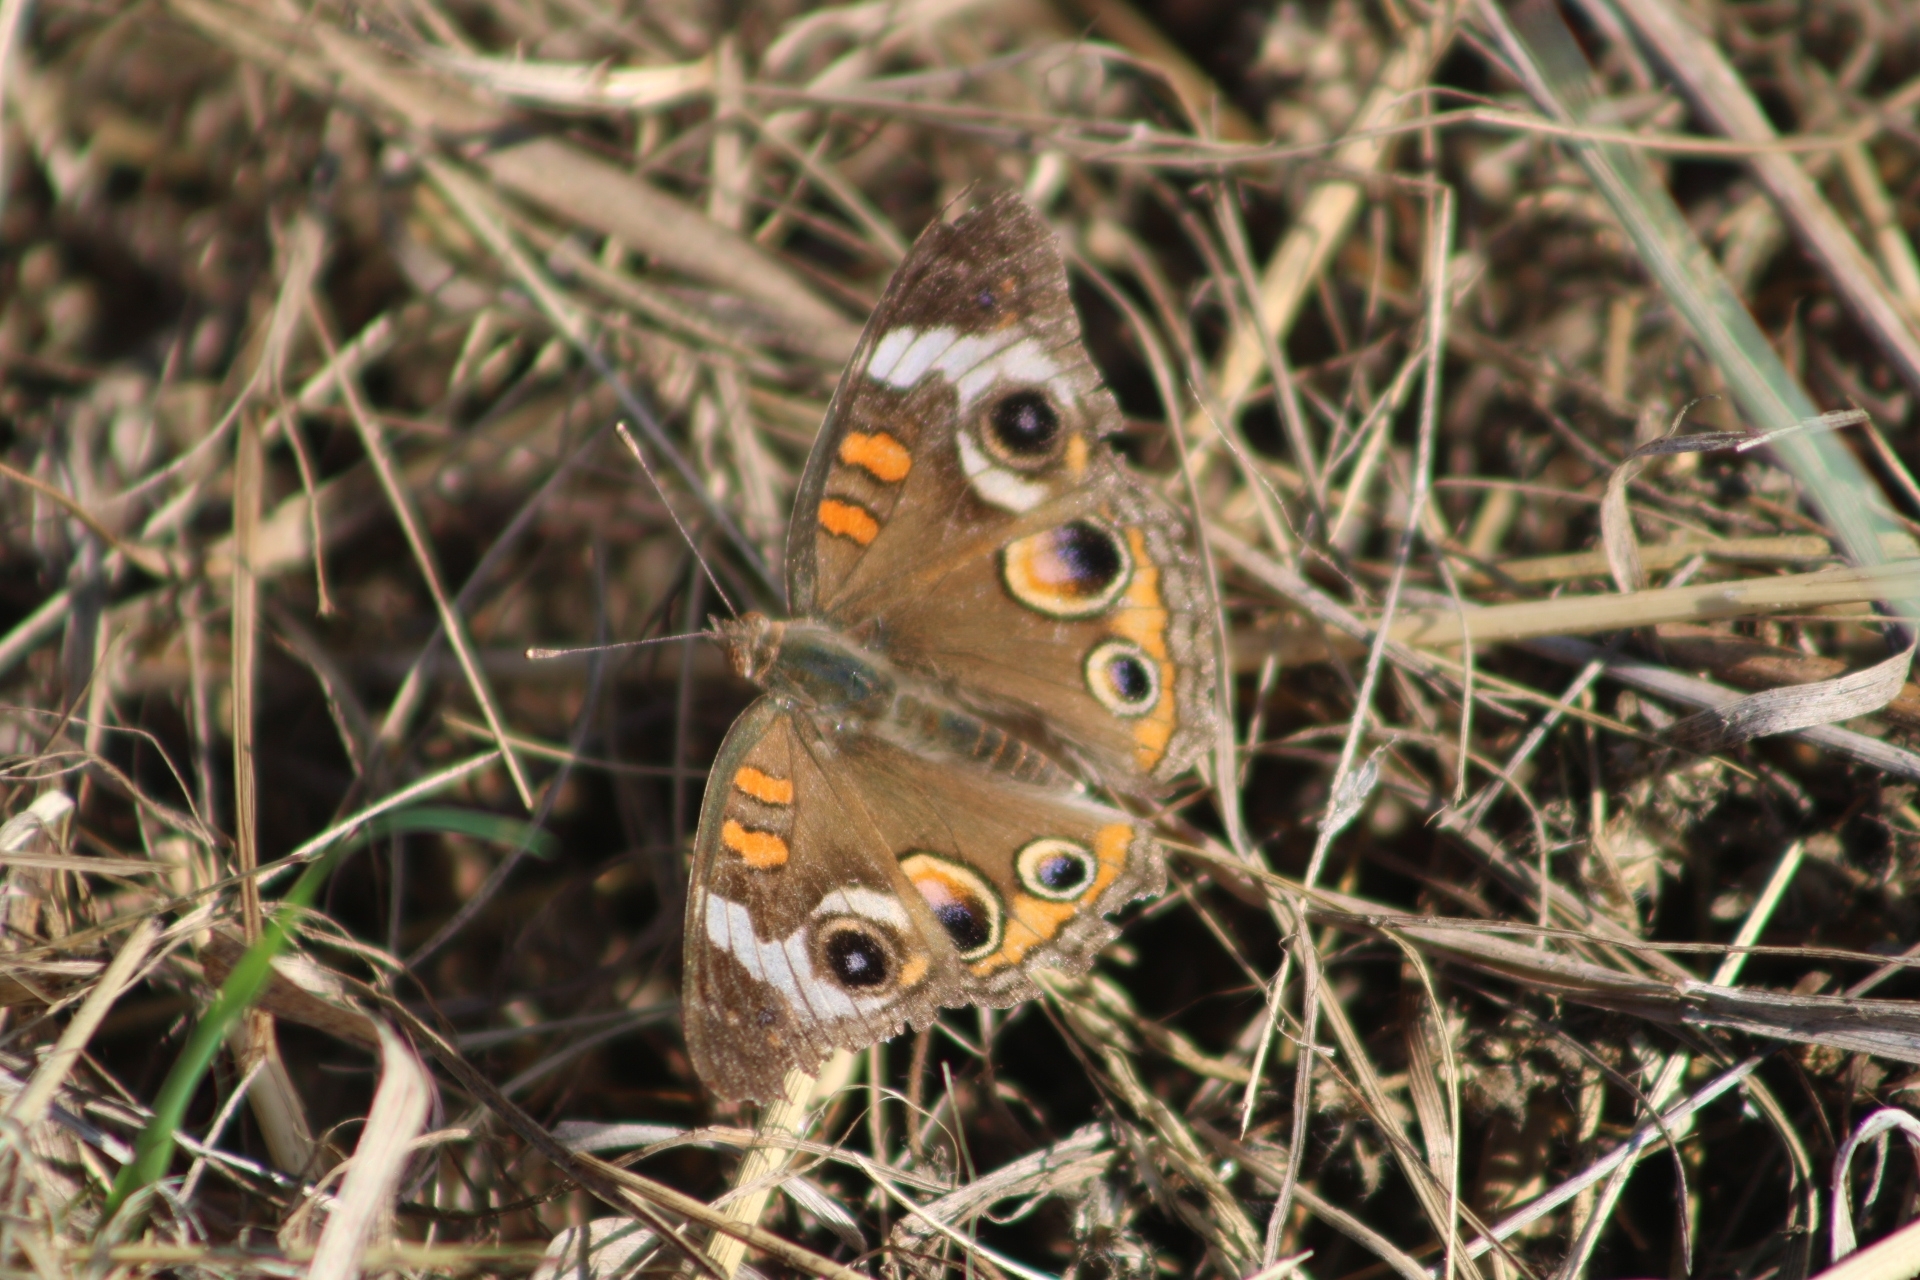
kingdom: Animalia
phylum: Arthropoda
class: Insecta
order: Lepidoptera
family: Nymphalidae
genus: Junonia
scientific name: Junonia coenia
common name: Common buckeye
